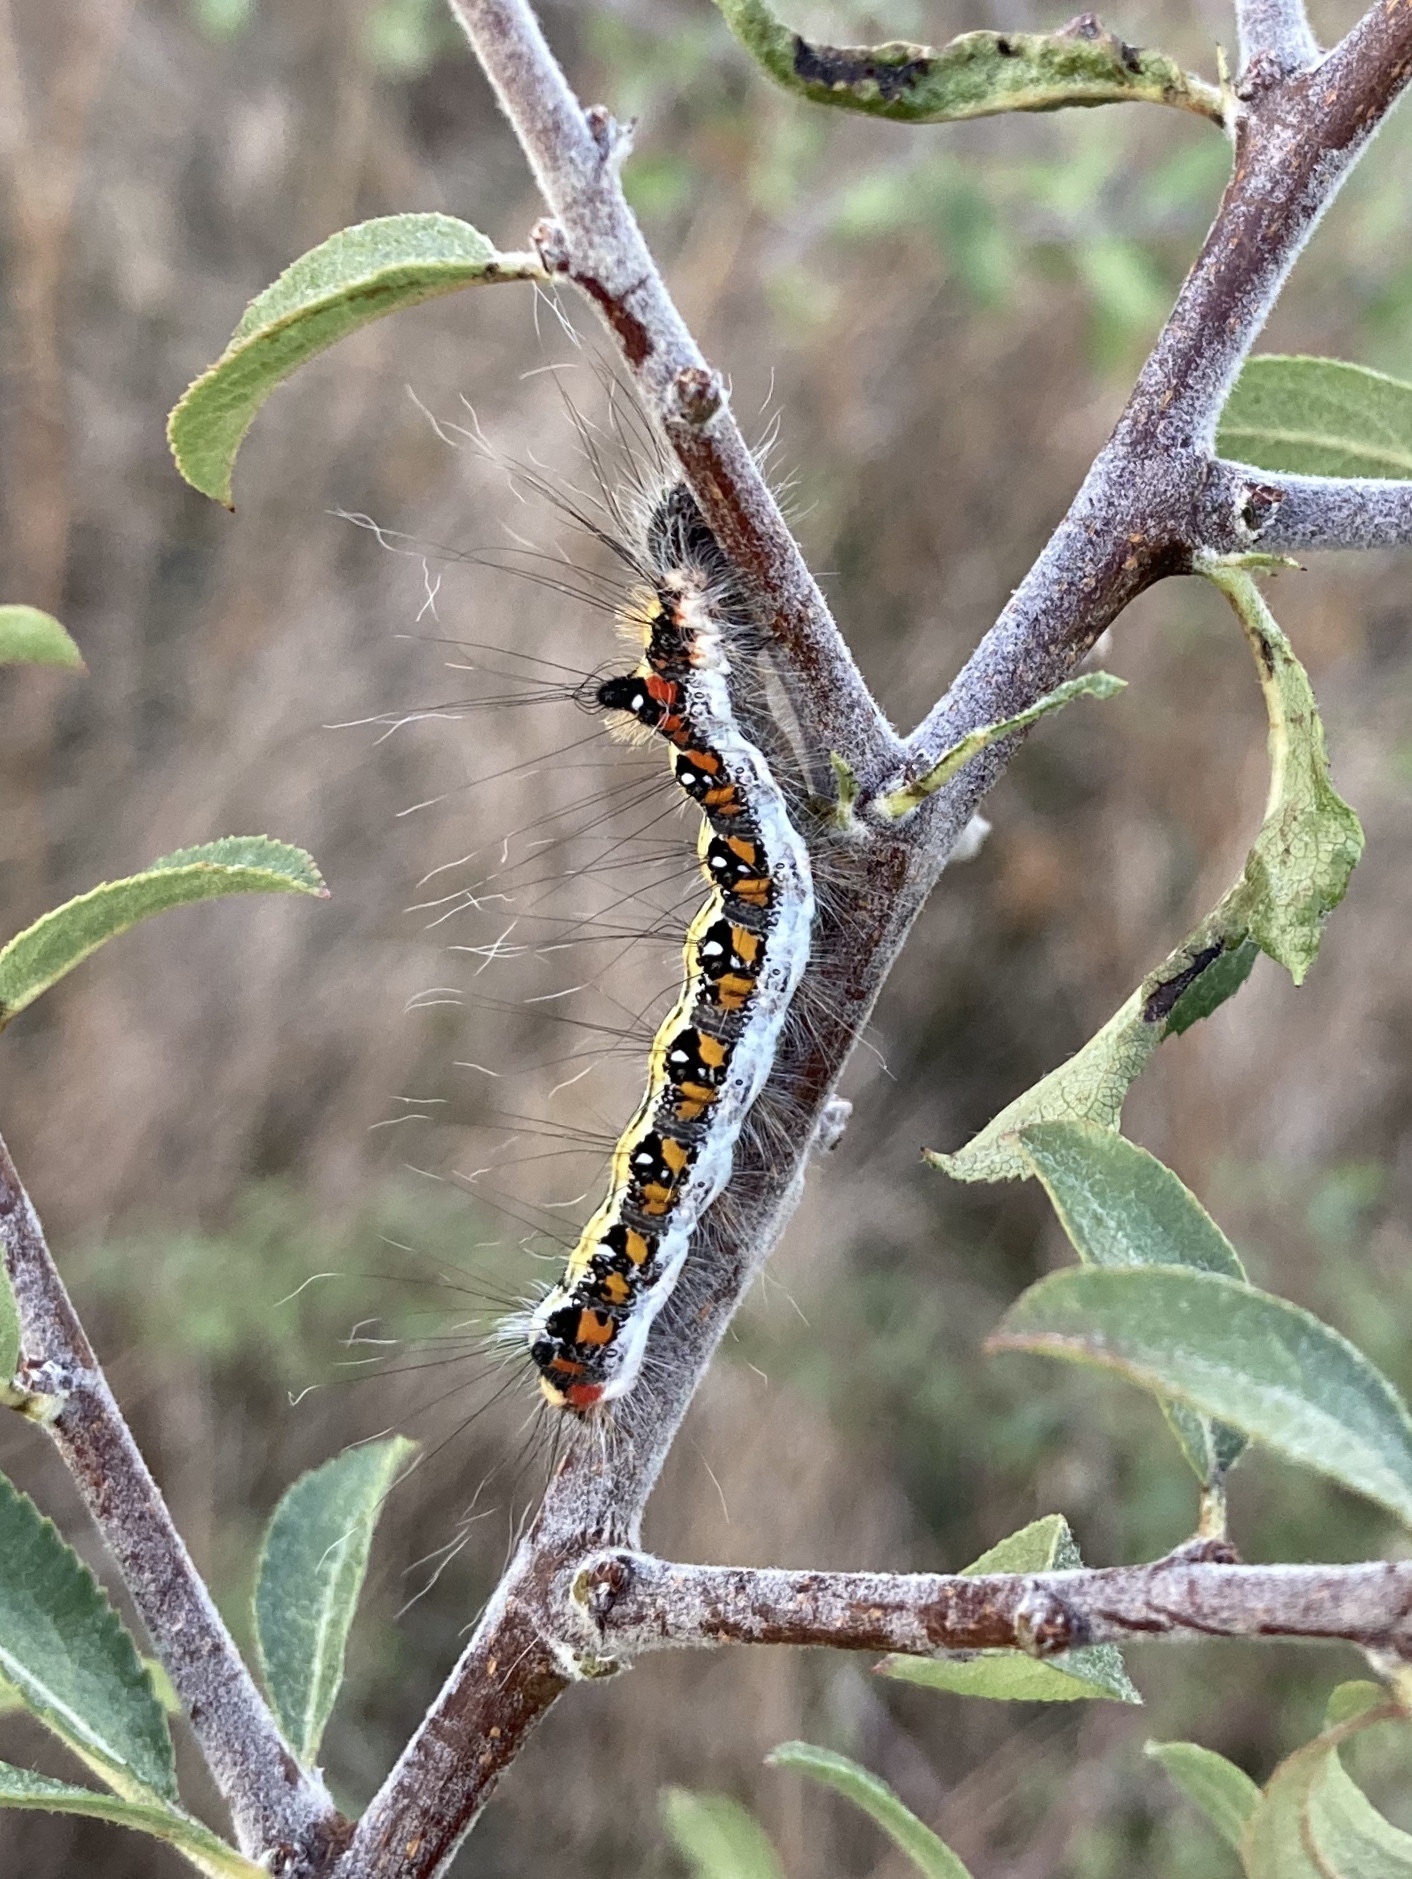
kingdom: Animalia
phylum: Arthropoda
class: Insecta
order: Lepidoptera
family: Noctuidae
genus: Acronicta
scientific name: Acronicta tridens
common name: Dark dagger
